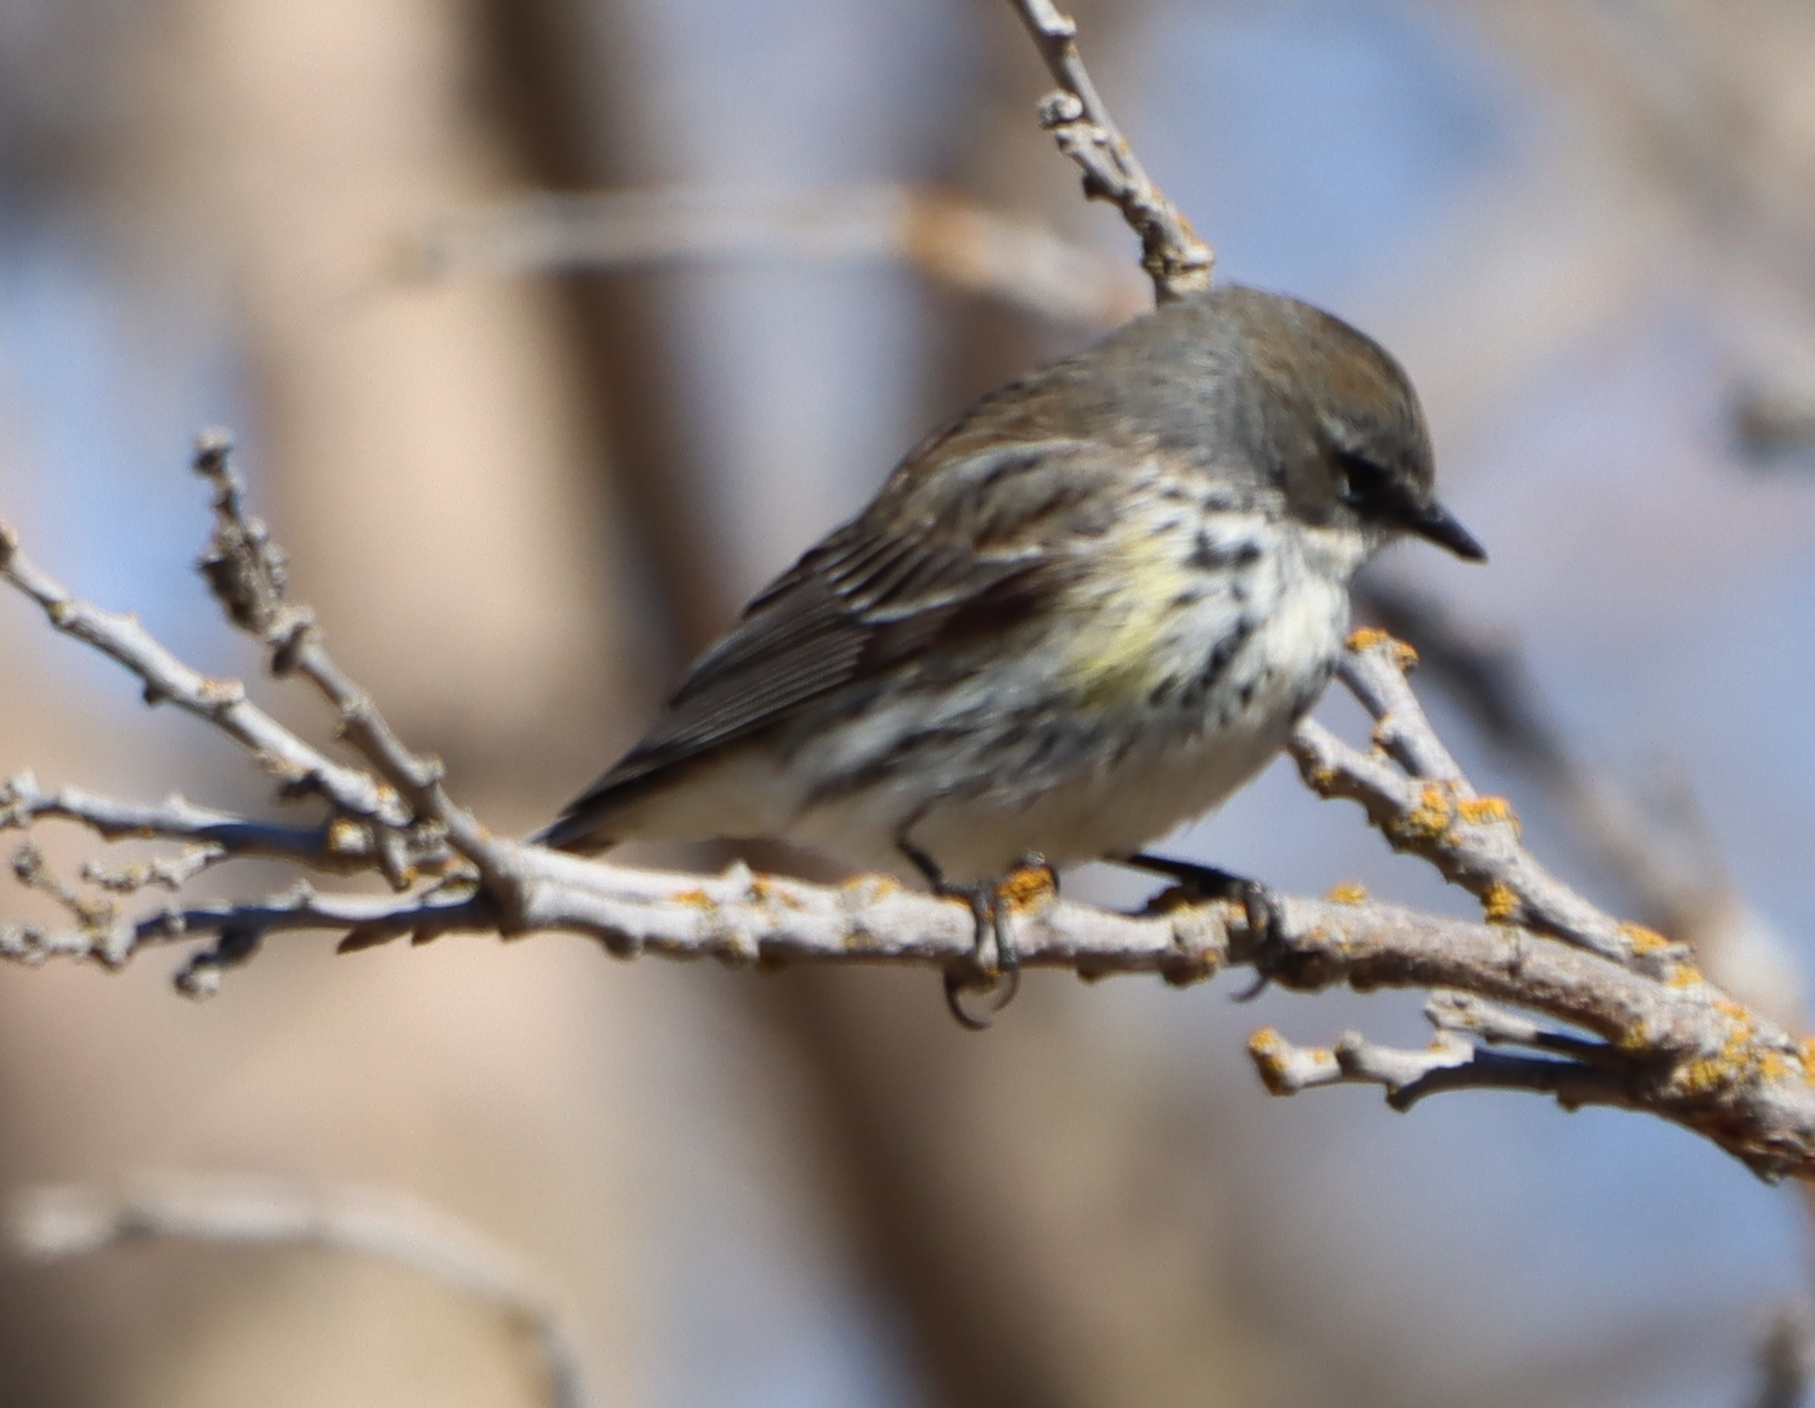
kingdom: Animalia
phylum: Chordata
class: Aves
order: Passeriformes
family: Parulidae
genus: Setophaga
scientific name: Setophaga coronata
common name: Myrtle warbler
